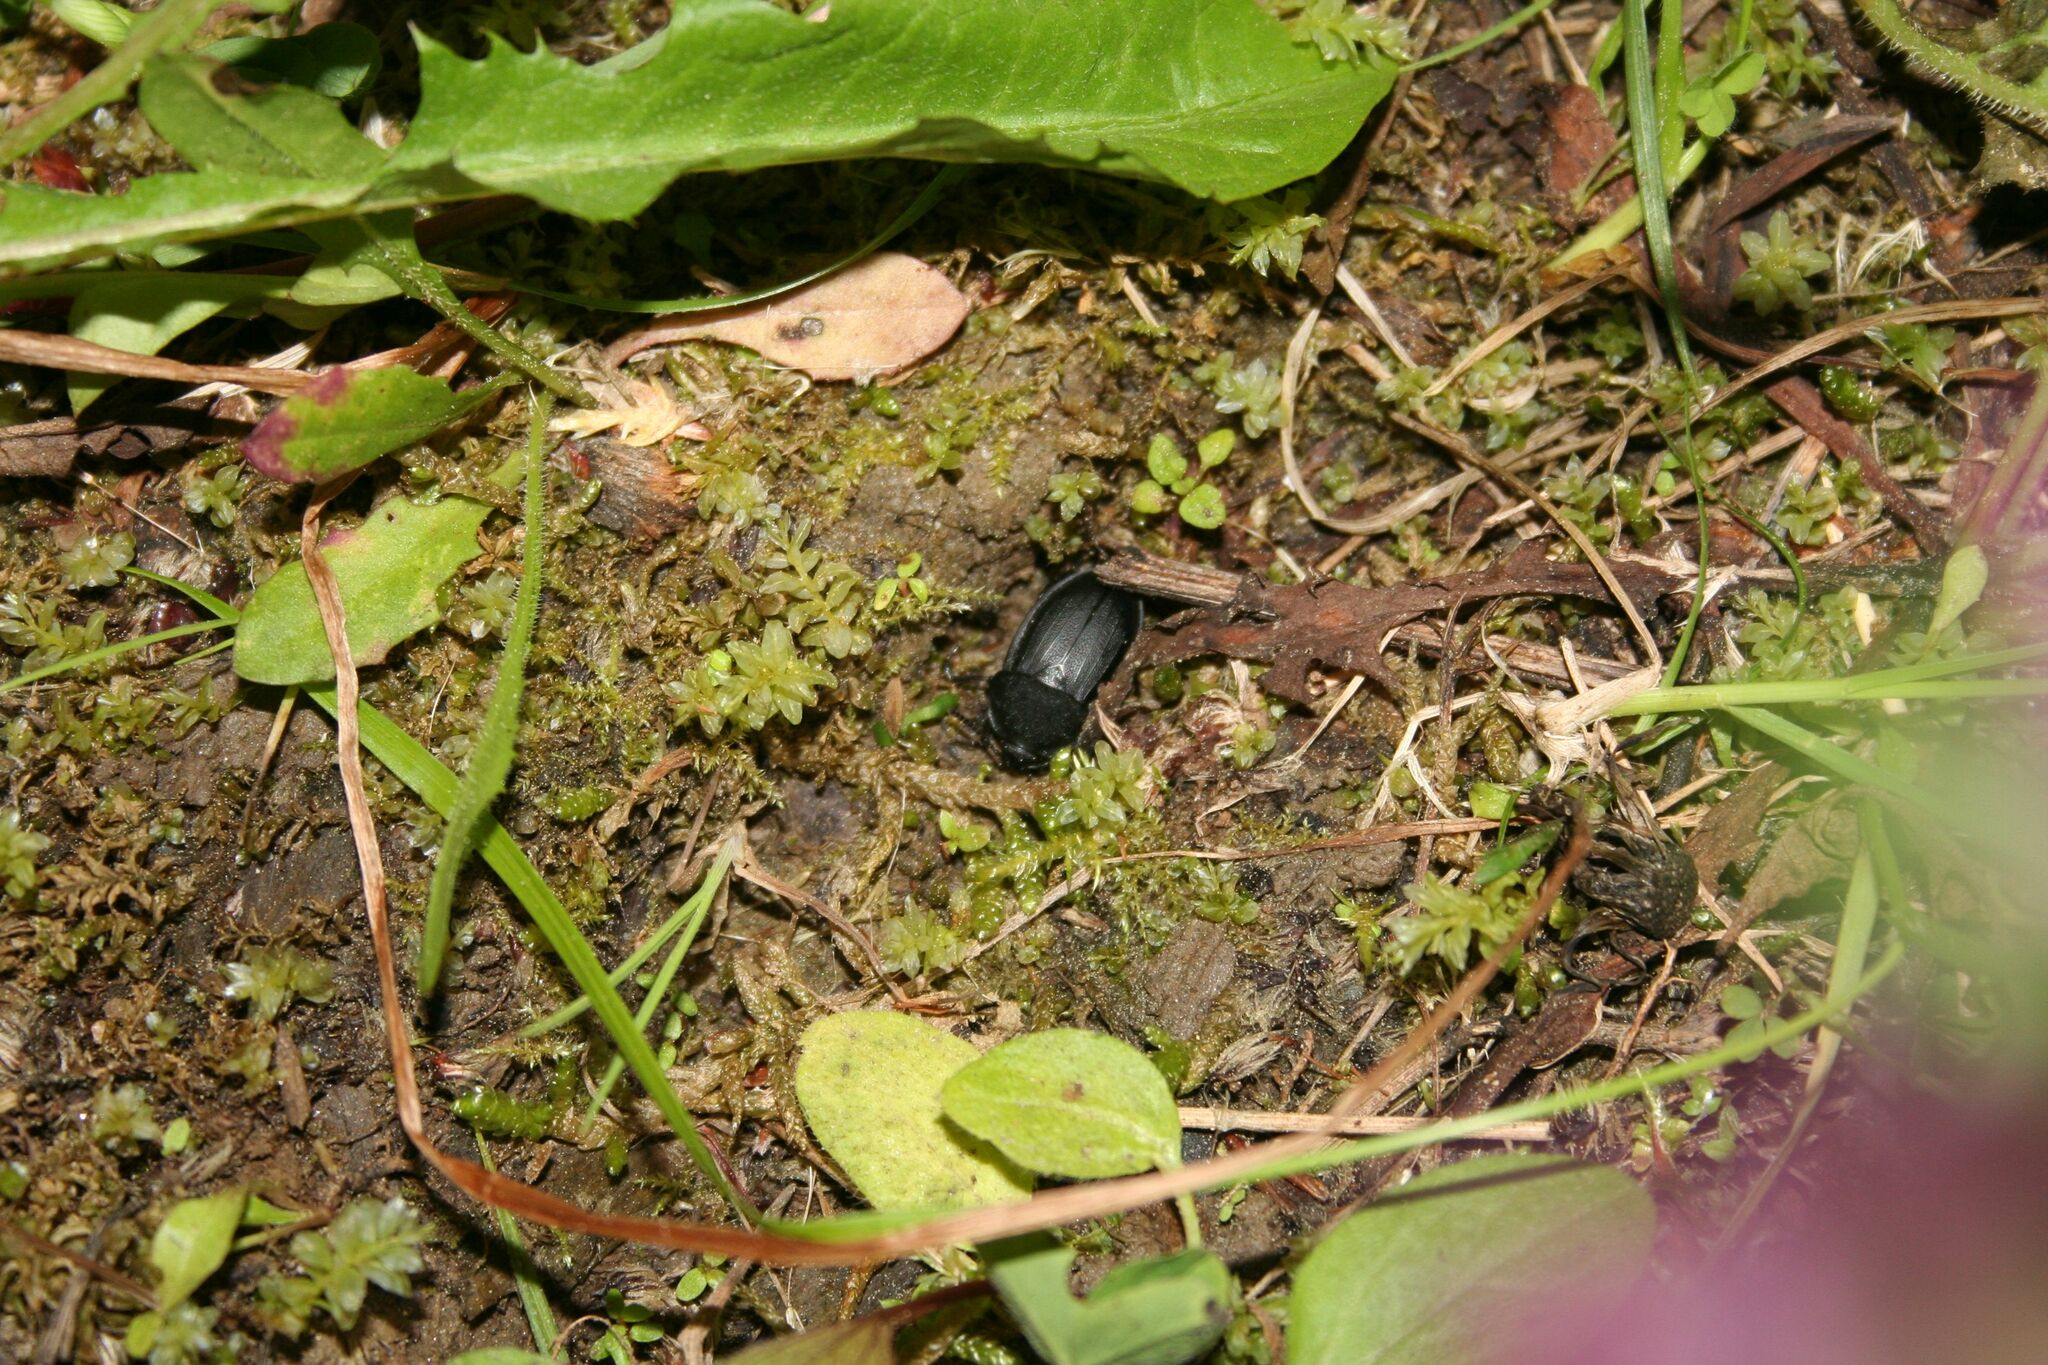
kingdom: Animalia
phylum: Arthropoda
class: Insecta
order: Coleoptera
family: Staphylinidae
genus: Silpha
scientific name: Silpha obscura
